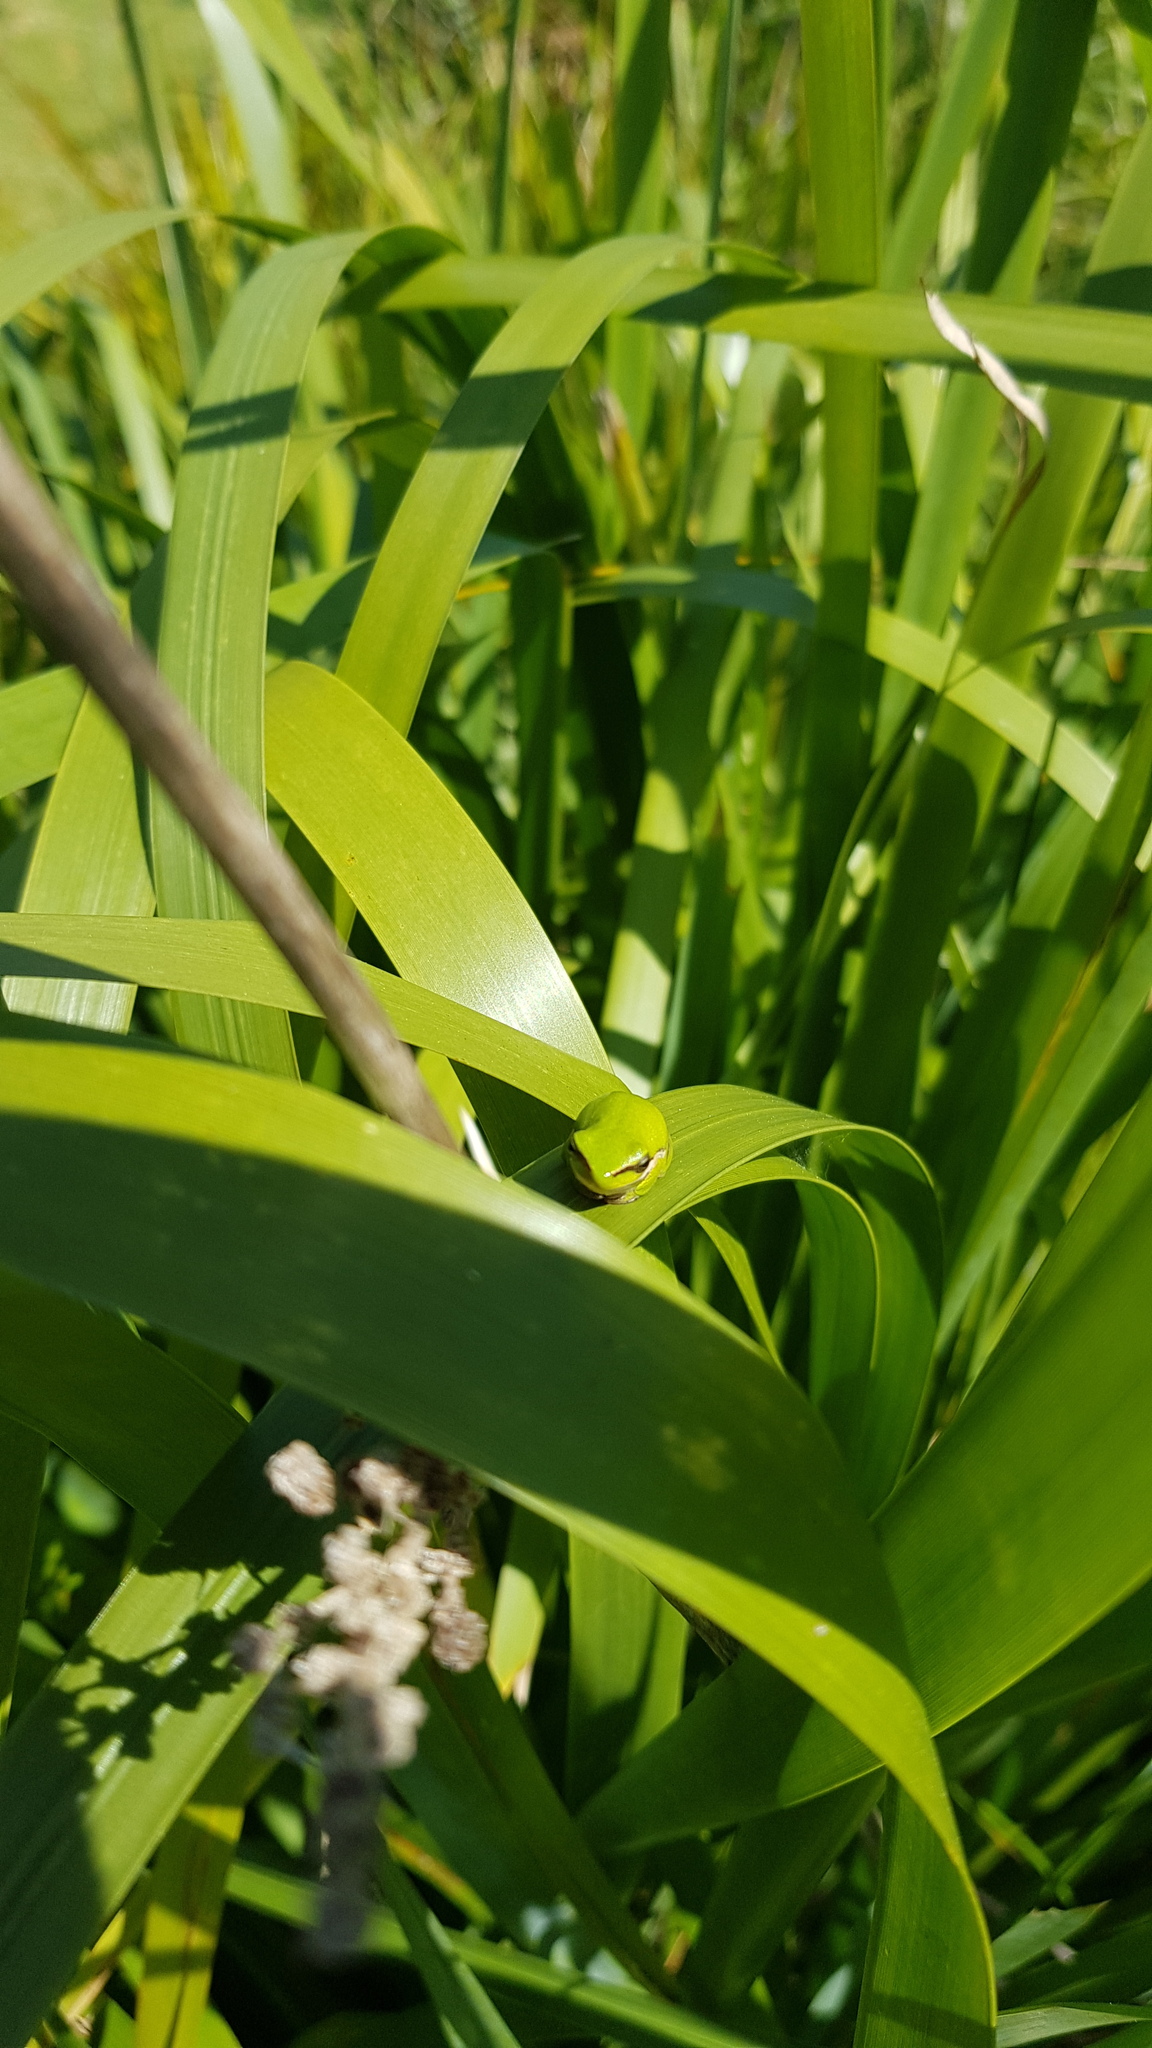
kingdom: Animalia
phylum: Chordata
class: Amphibia
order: Anura
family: Pelodryadidae
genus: Litoria
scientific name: Litoria fallax
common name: Eastern dwarf treefrog
